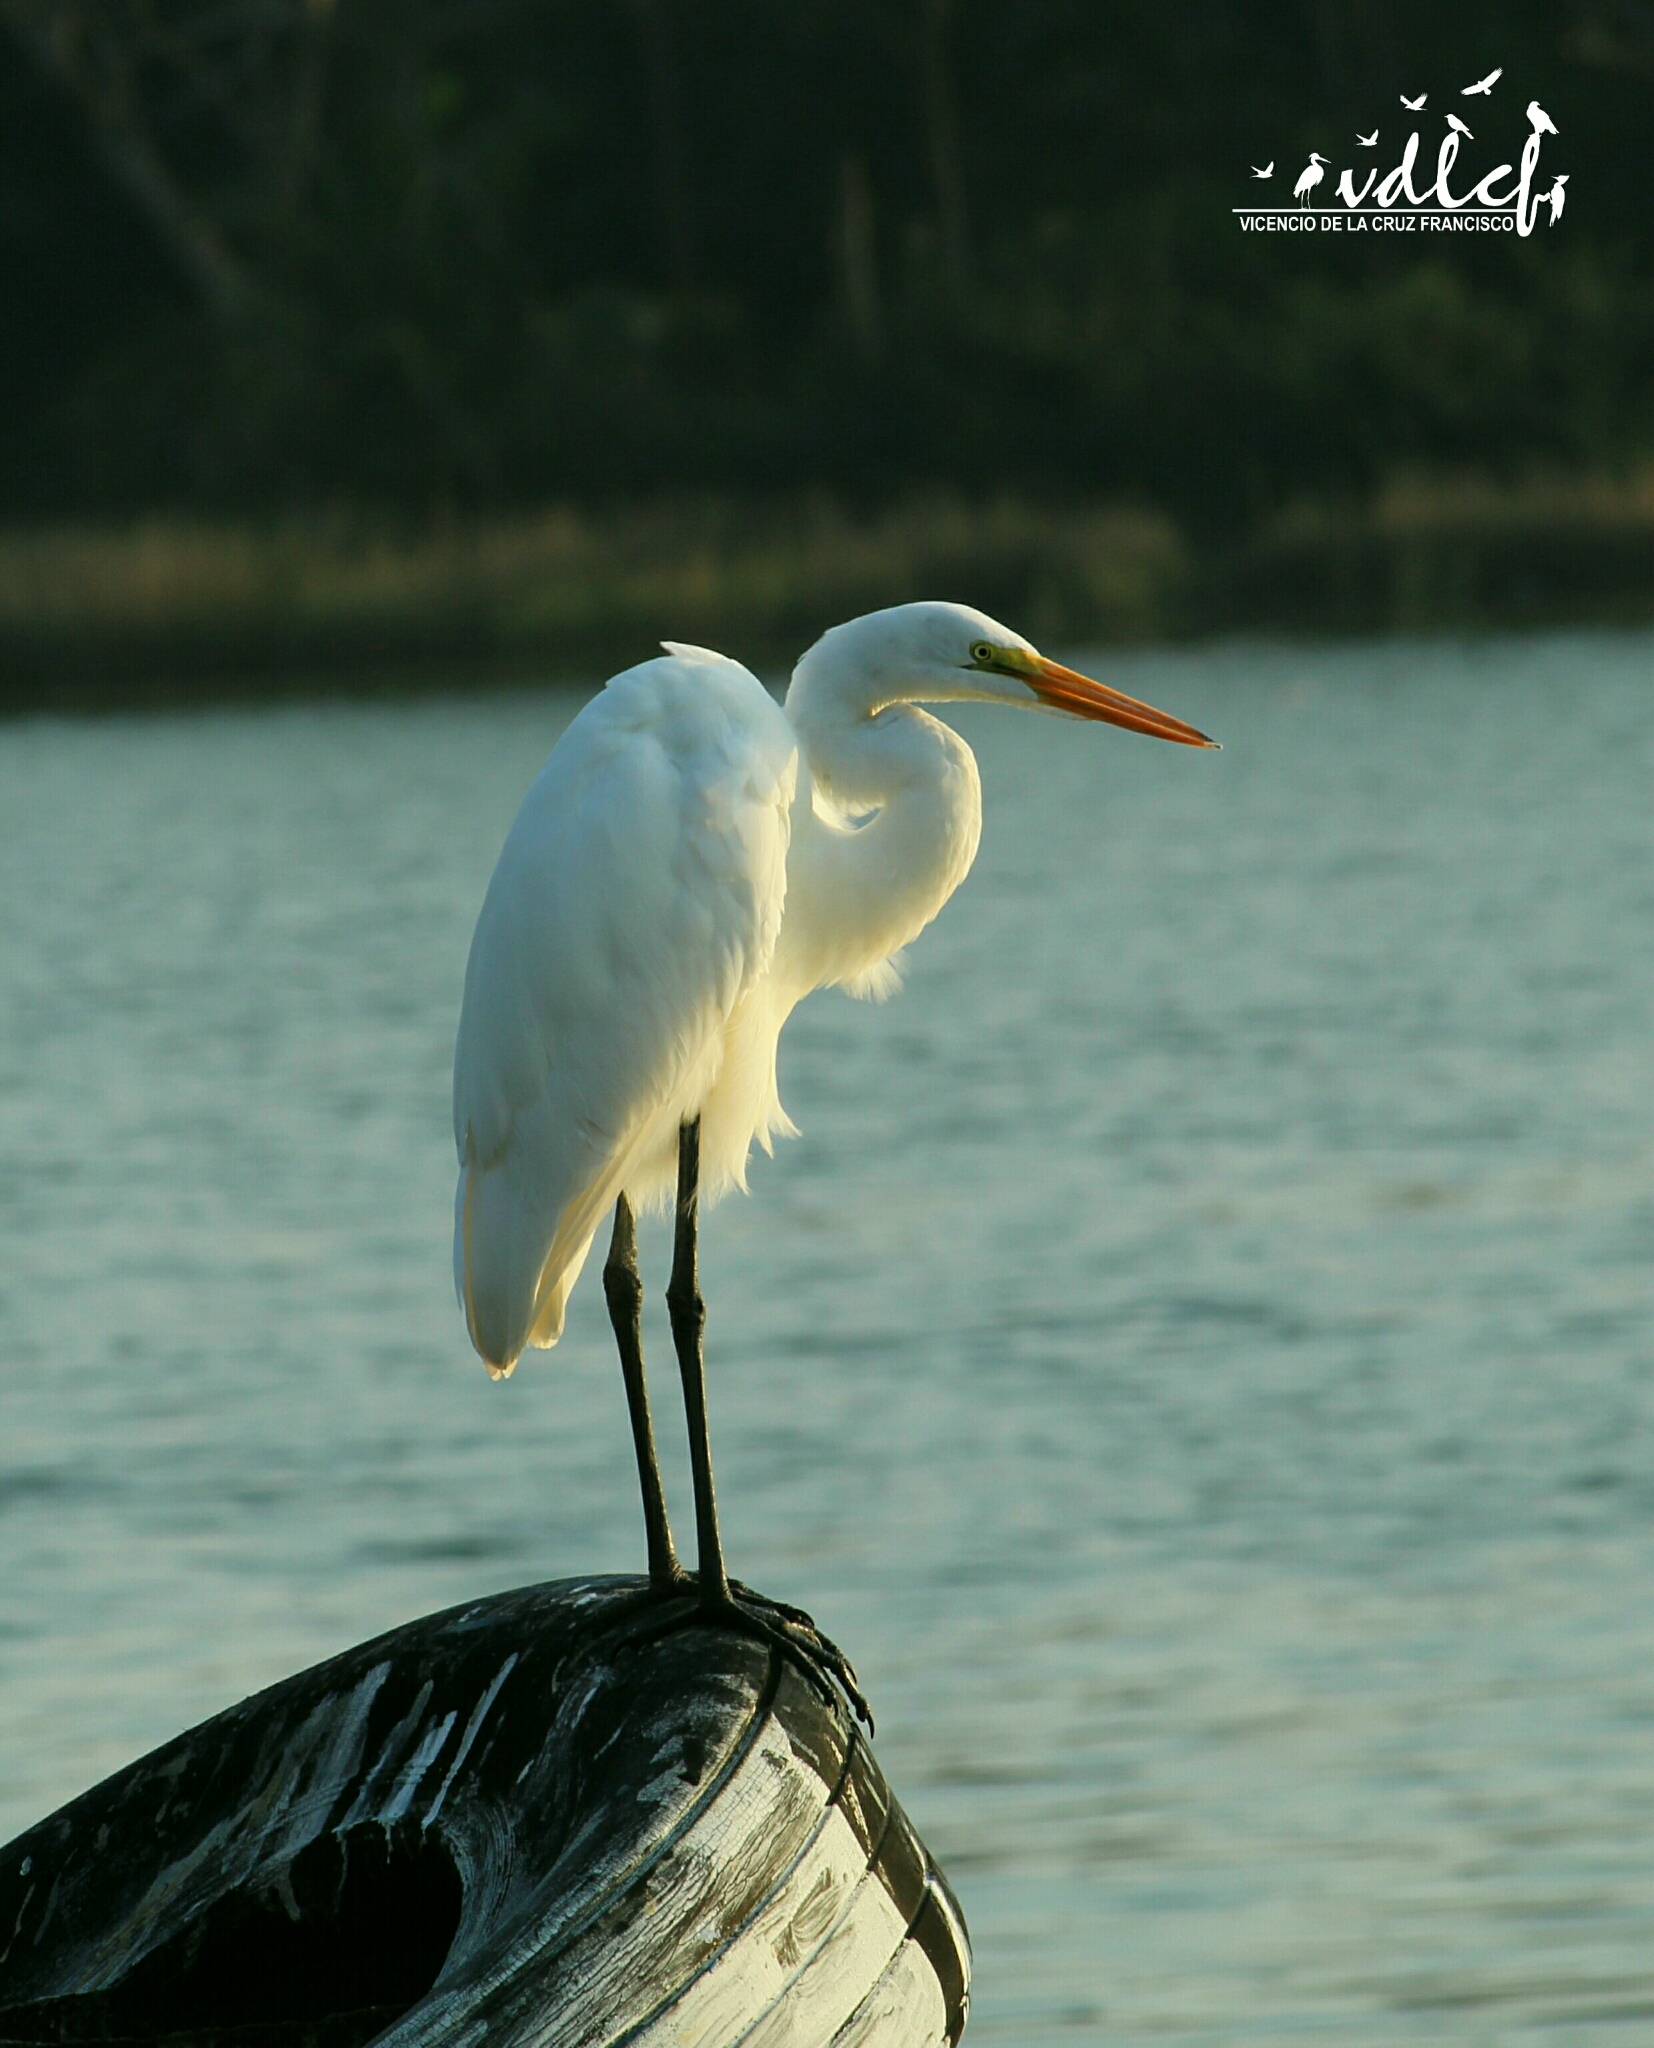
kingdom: Animalia
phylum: Chordata
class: Aves
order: Pelecaniformes
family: Ardeidae
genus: Ardea
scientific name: Ardea alba
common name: Great egret
